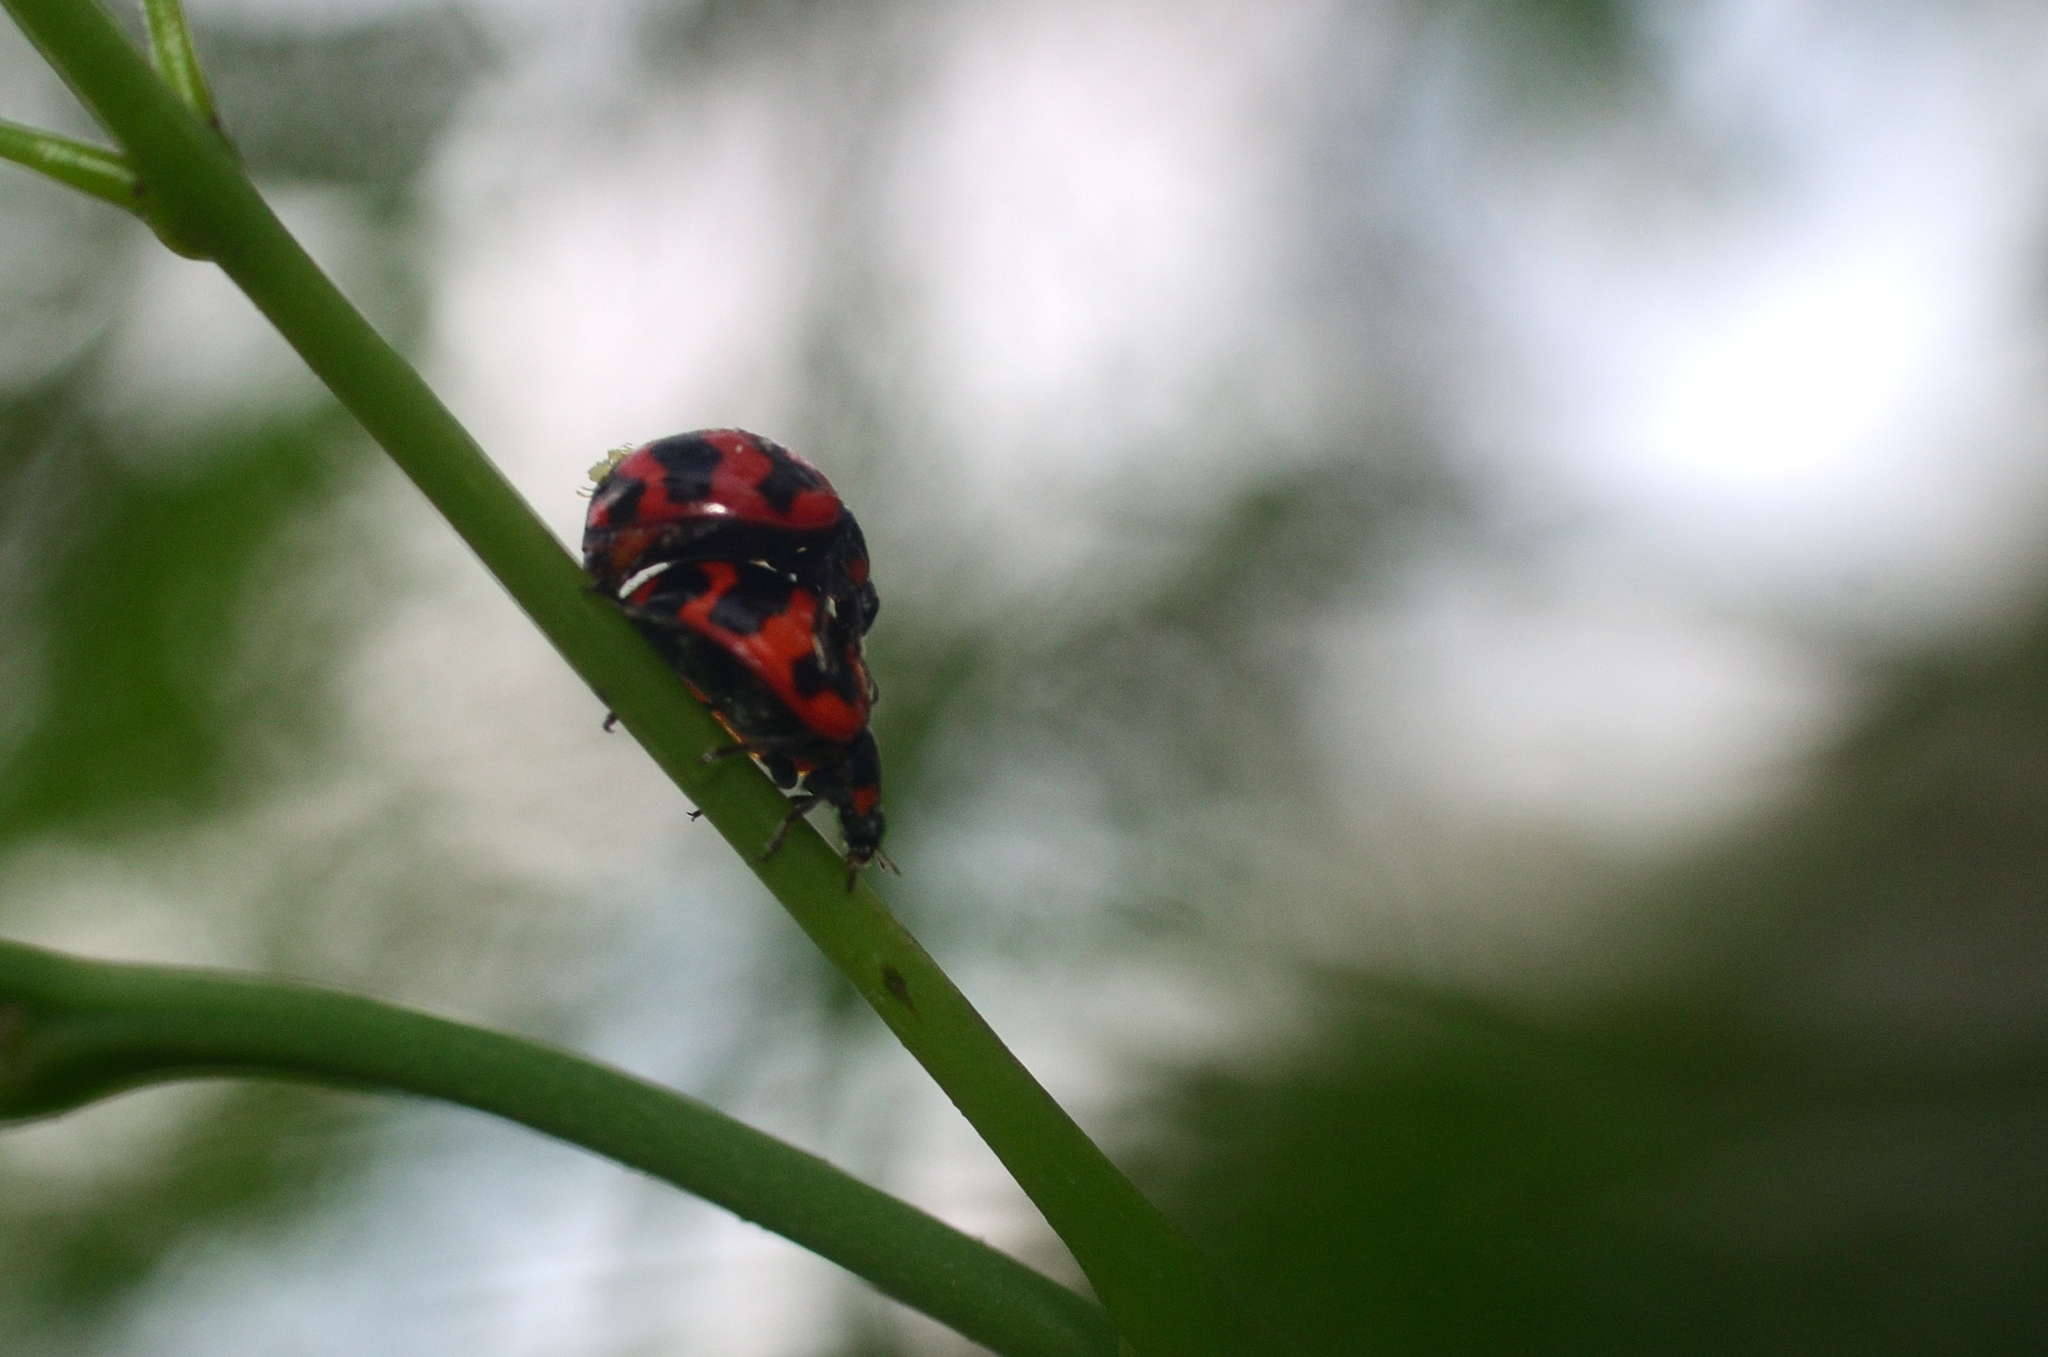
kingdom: Animalia
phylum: Arthropoda
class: Insecta
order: Coleoptera
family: Coccinellidae
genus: Coccinella
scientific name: Coccinella transversalis
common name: Transverse lady beetle
